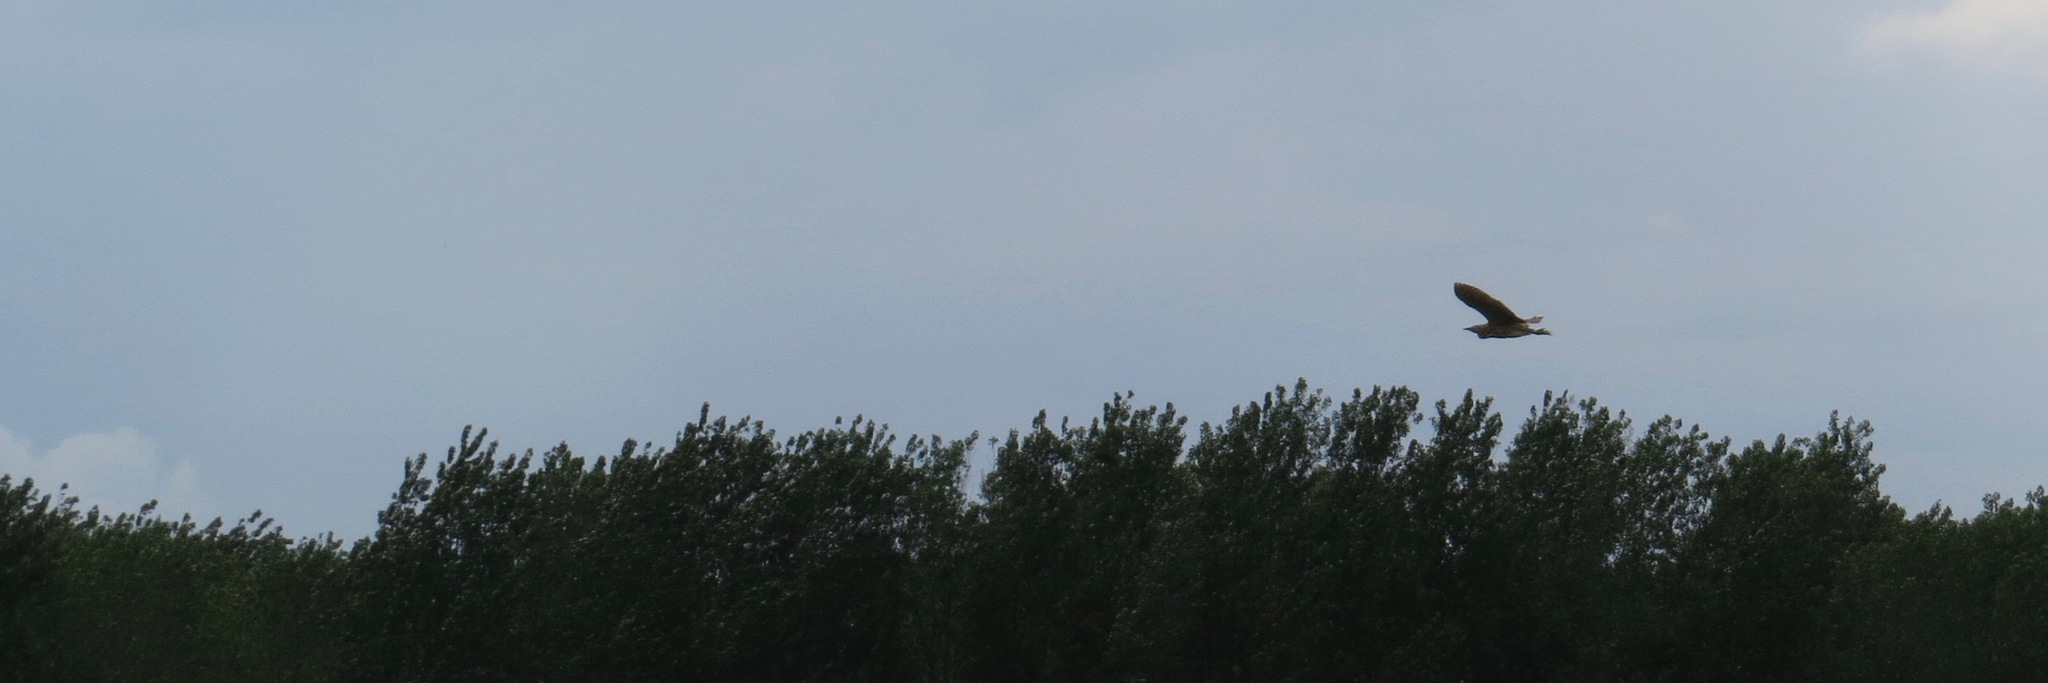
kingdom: Animalia
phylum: Chordata
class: Aves
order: Pelecaniformes
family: Ardeidae
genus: Botaurus
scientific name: Botaurus stellaris
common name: Eurasian bittern
